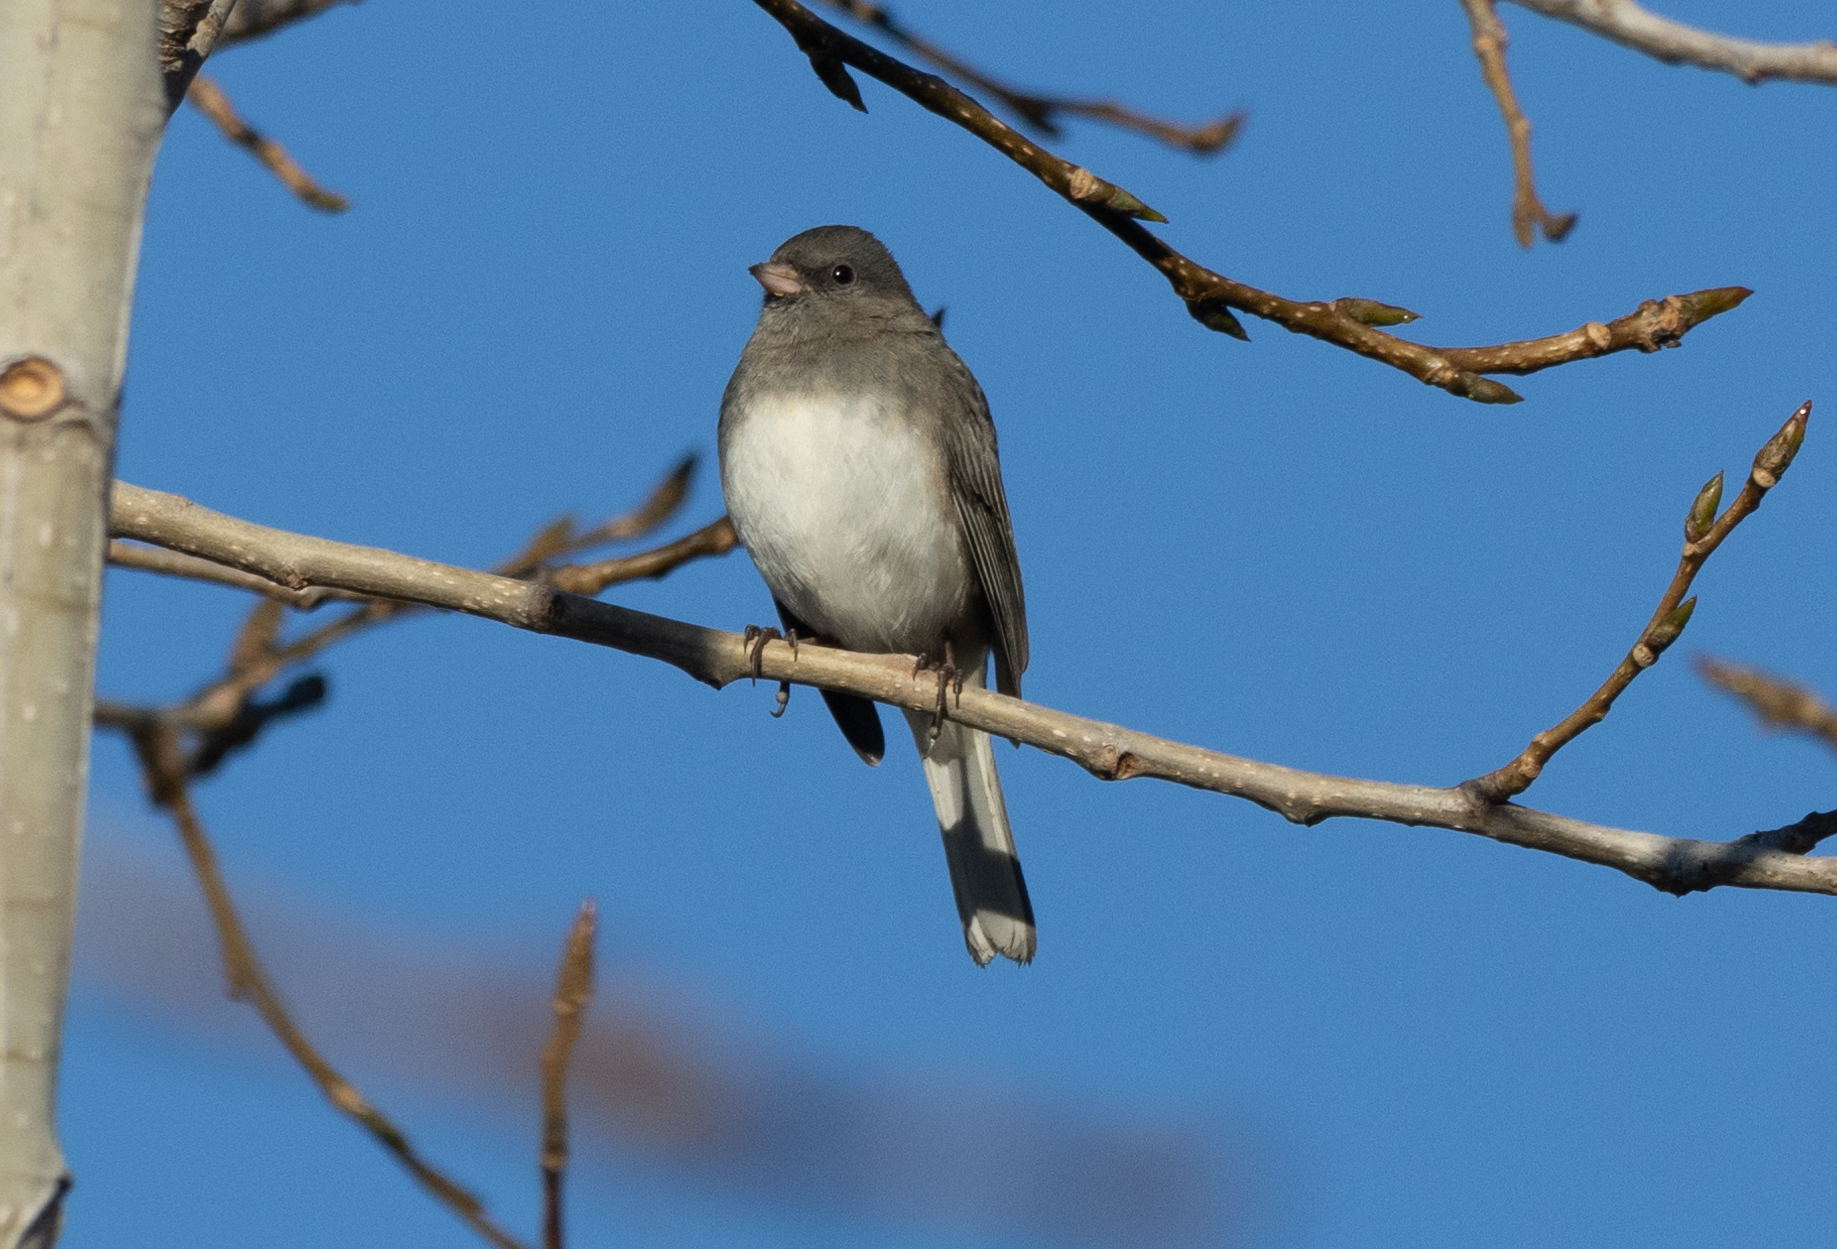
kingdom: Animalia
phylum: Chordata
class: Aves
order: Passeriformes
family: Passerellidae
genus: Junco
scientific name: Junco hyemalis
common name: Dark-eyed junco
